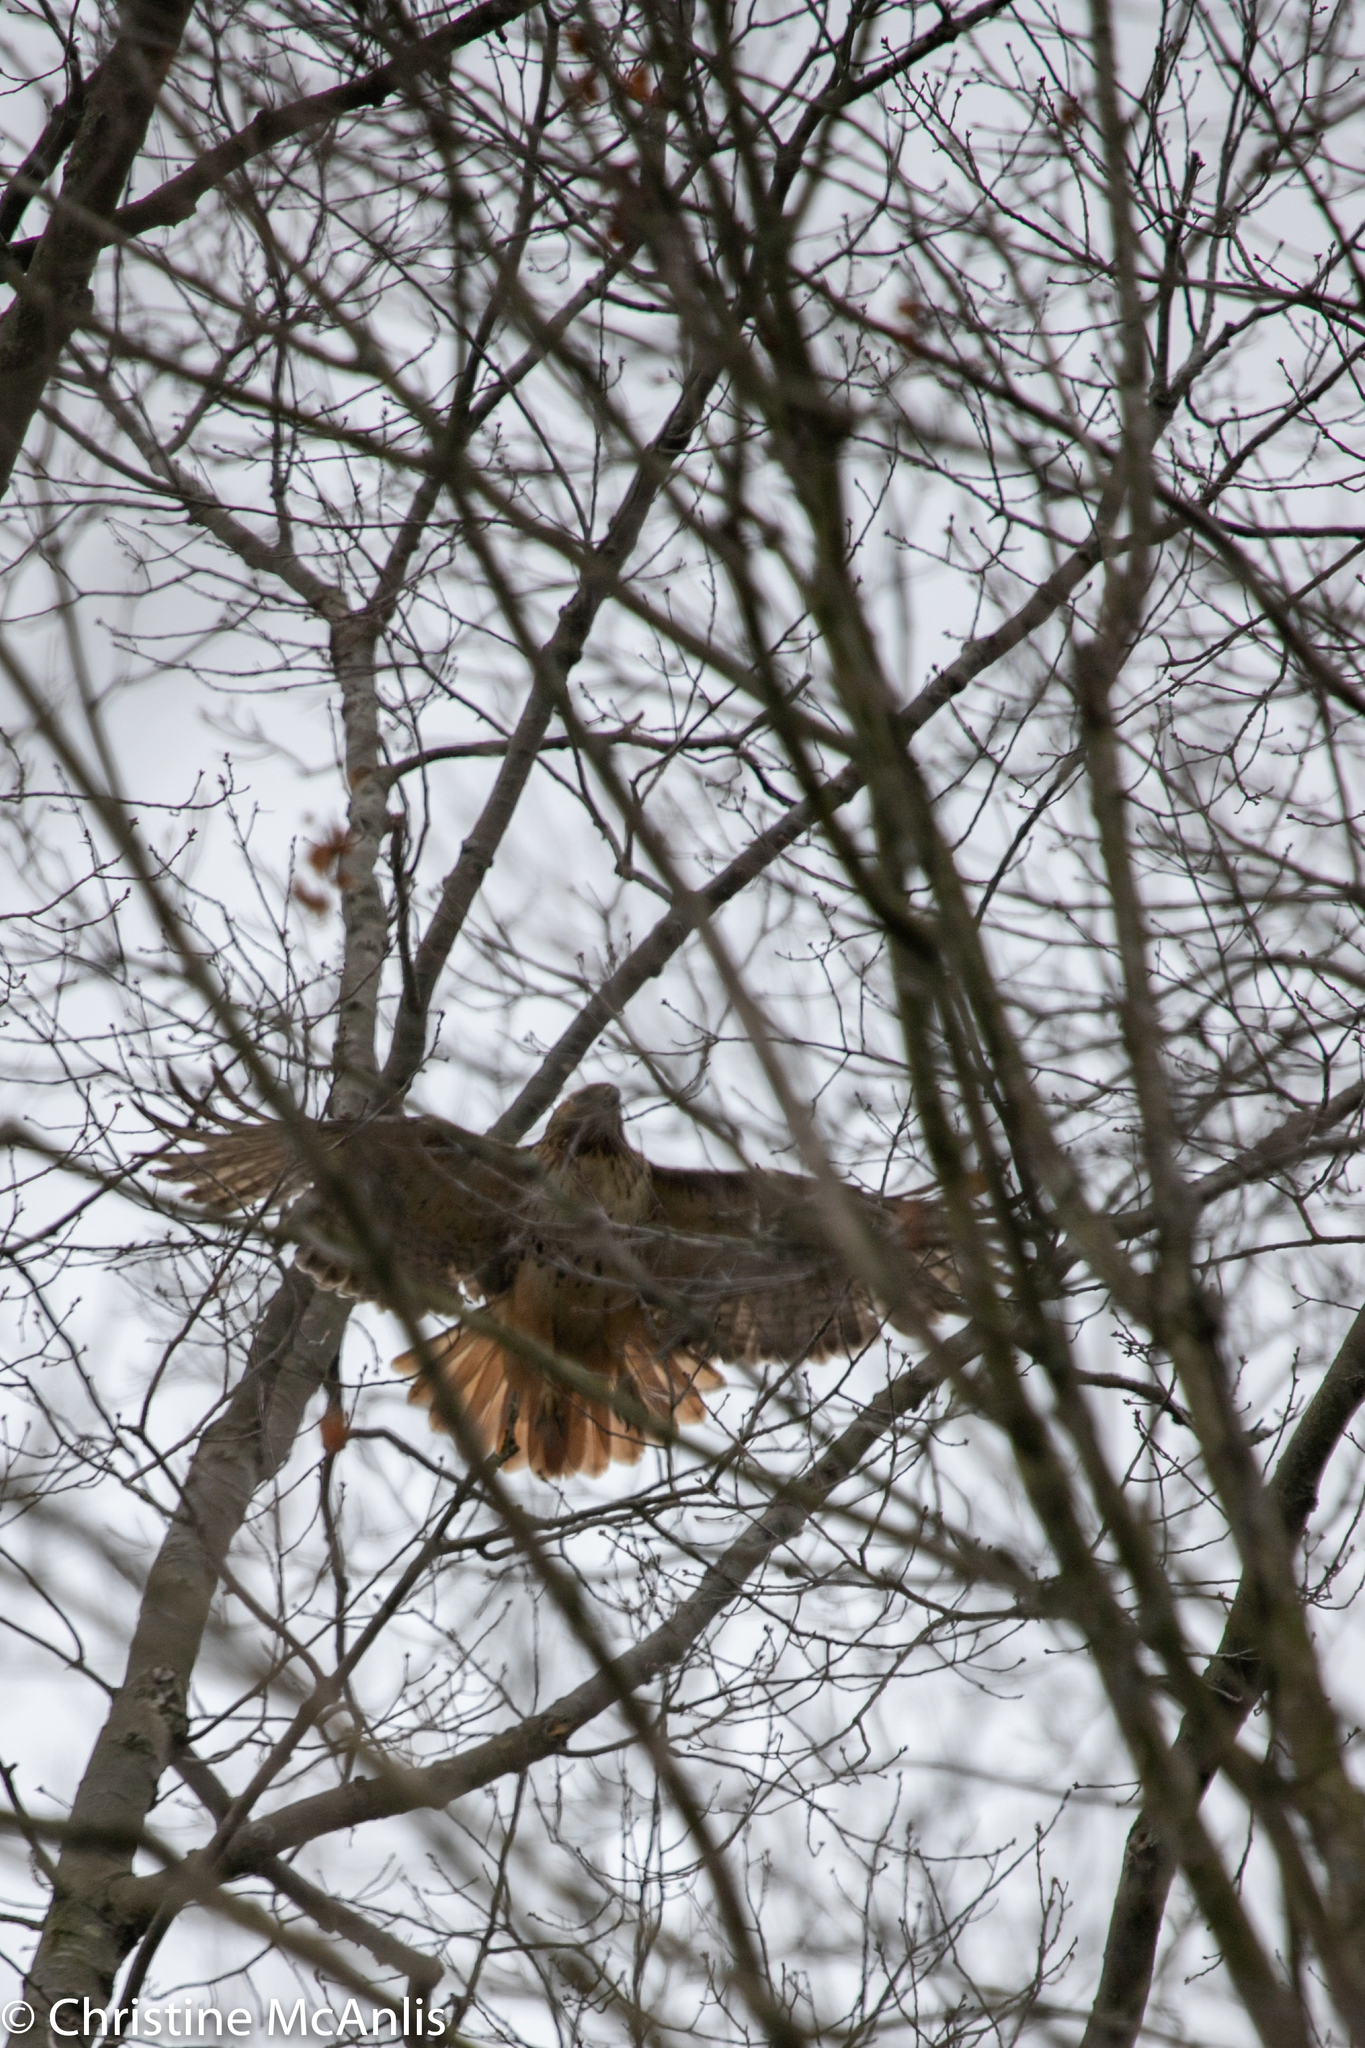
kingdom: Animalia
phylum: Chordata
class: Aves
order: Accipitriformes
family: Accipitridae
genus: Buteo
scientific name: Buteo jamaicensis
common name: Red-tailed hawk
